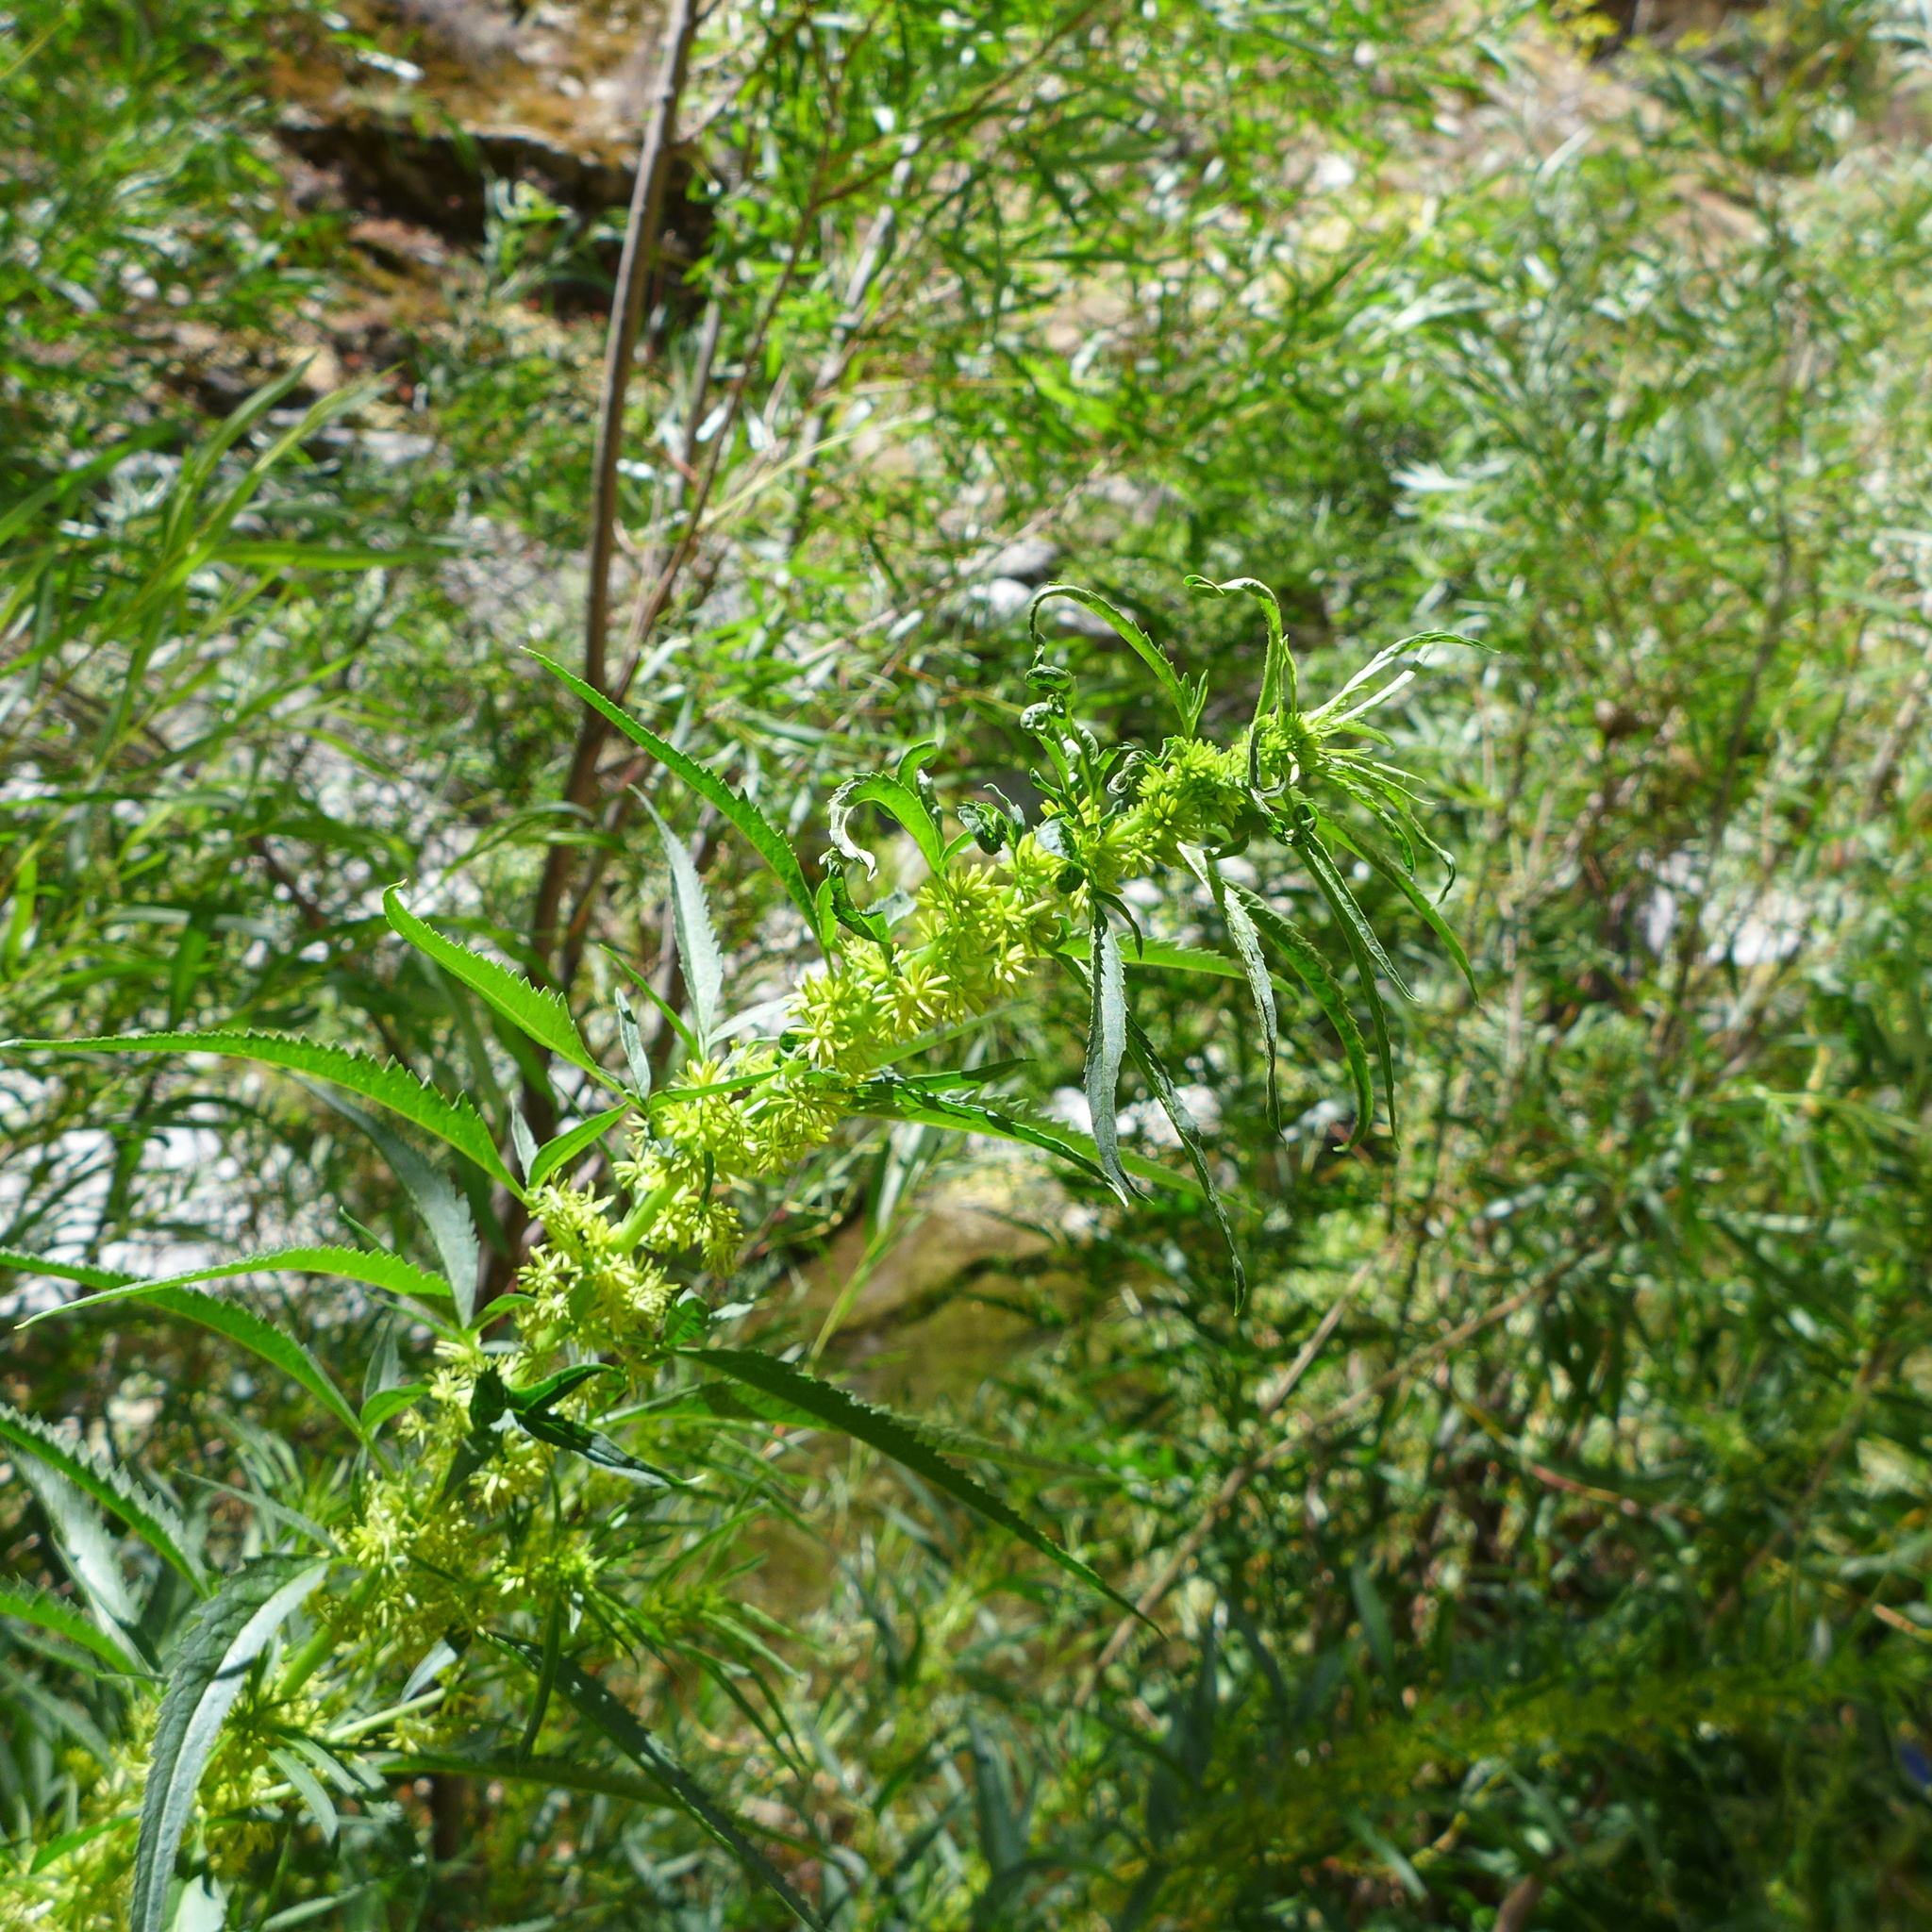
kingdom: Plantae
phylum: Tracheophyta
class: Magnoliopsida
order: Cucurbitales
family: Datiscaceae
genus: Datisca
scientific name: Datisca glomerata
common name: Durango-root
